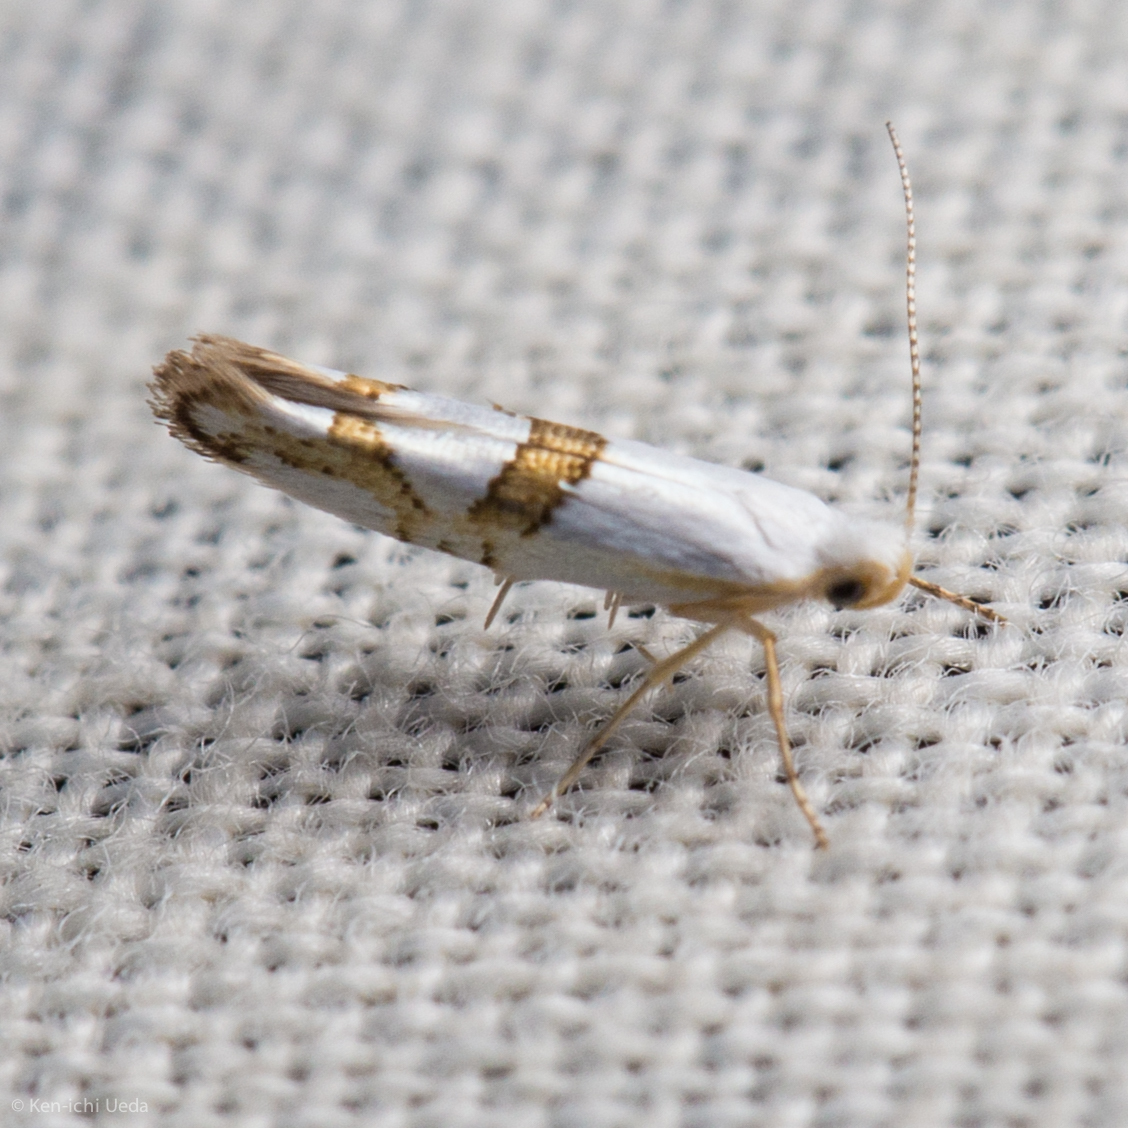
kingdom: Animalia
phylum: Arthropoda
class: Insecta
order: Lepidoptera
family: Argyresthiidae
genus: Argyresthia
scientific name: Argyresthia oreasella
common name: Cherry shoot borer moth
